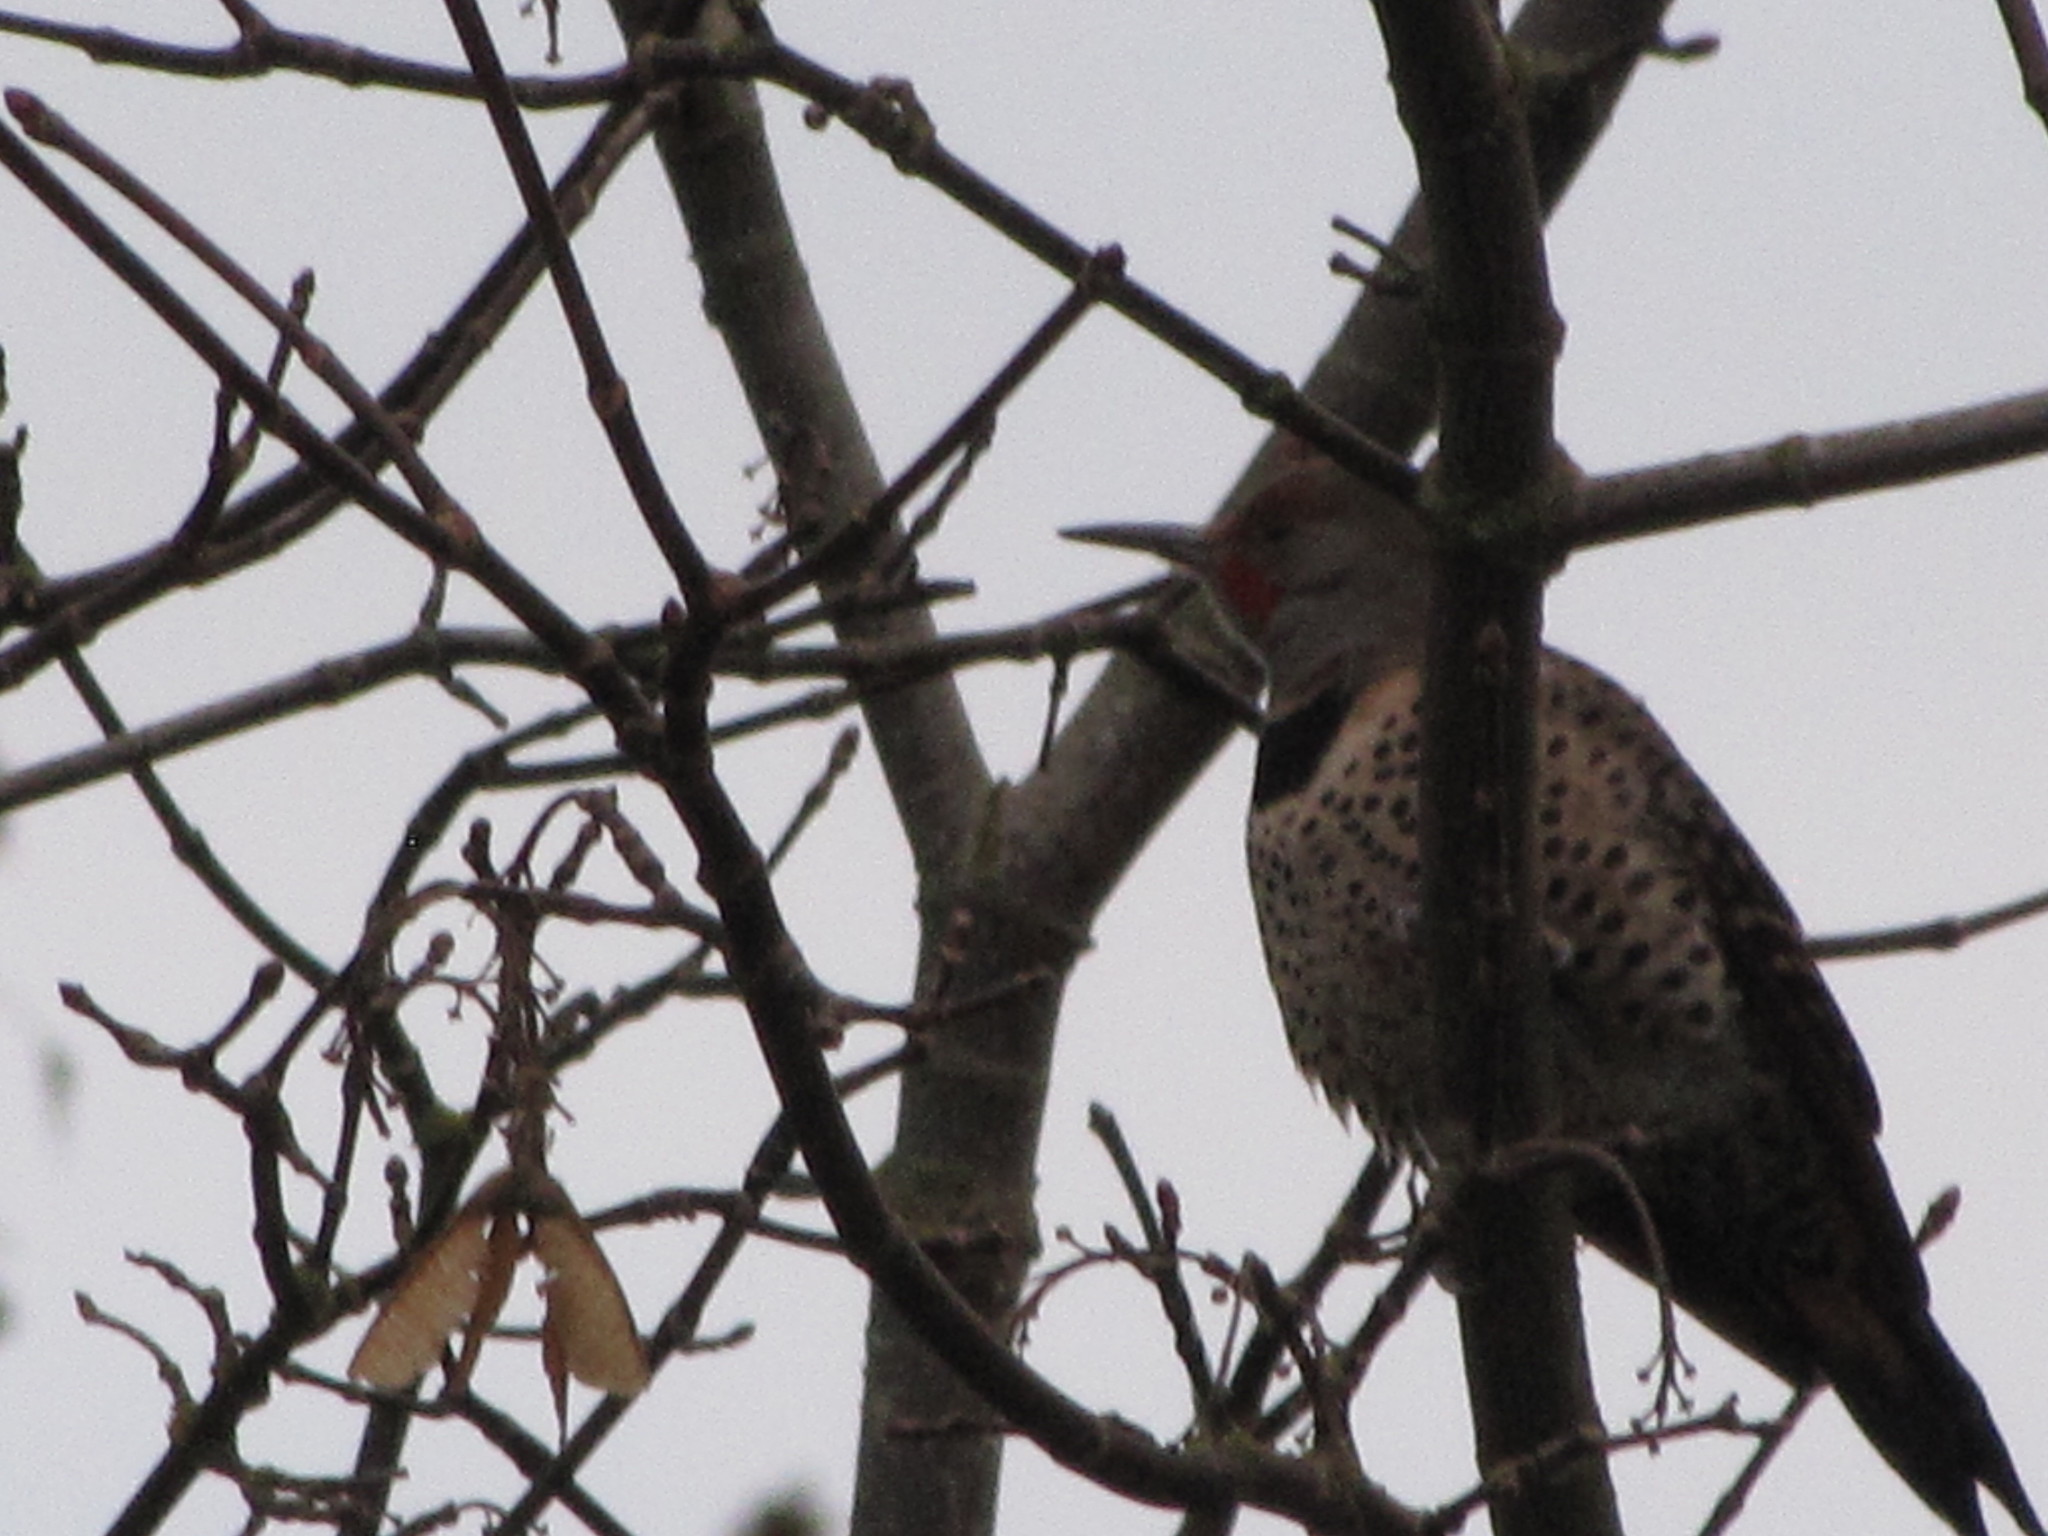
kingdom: Animalia
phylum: Chordata
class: Aves
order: Piciformes
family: Picidae
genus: Colaptes
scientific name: Colaptes auratus
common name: Northern flicker
